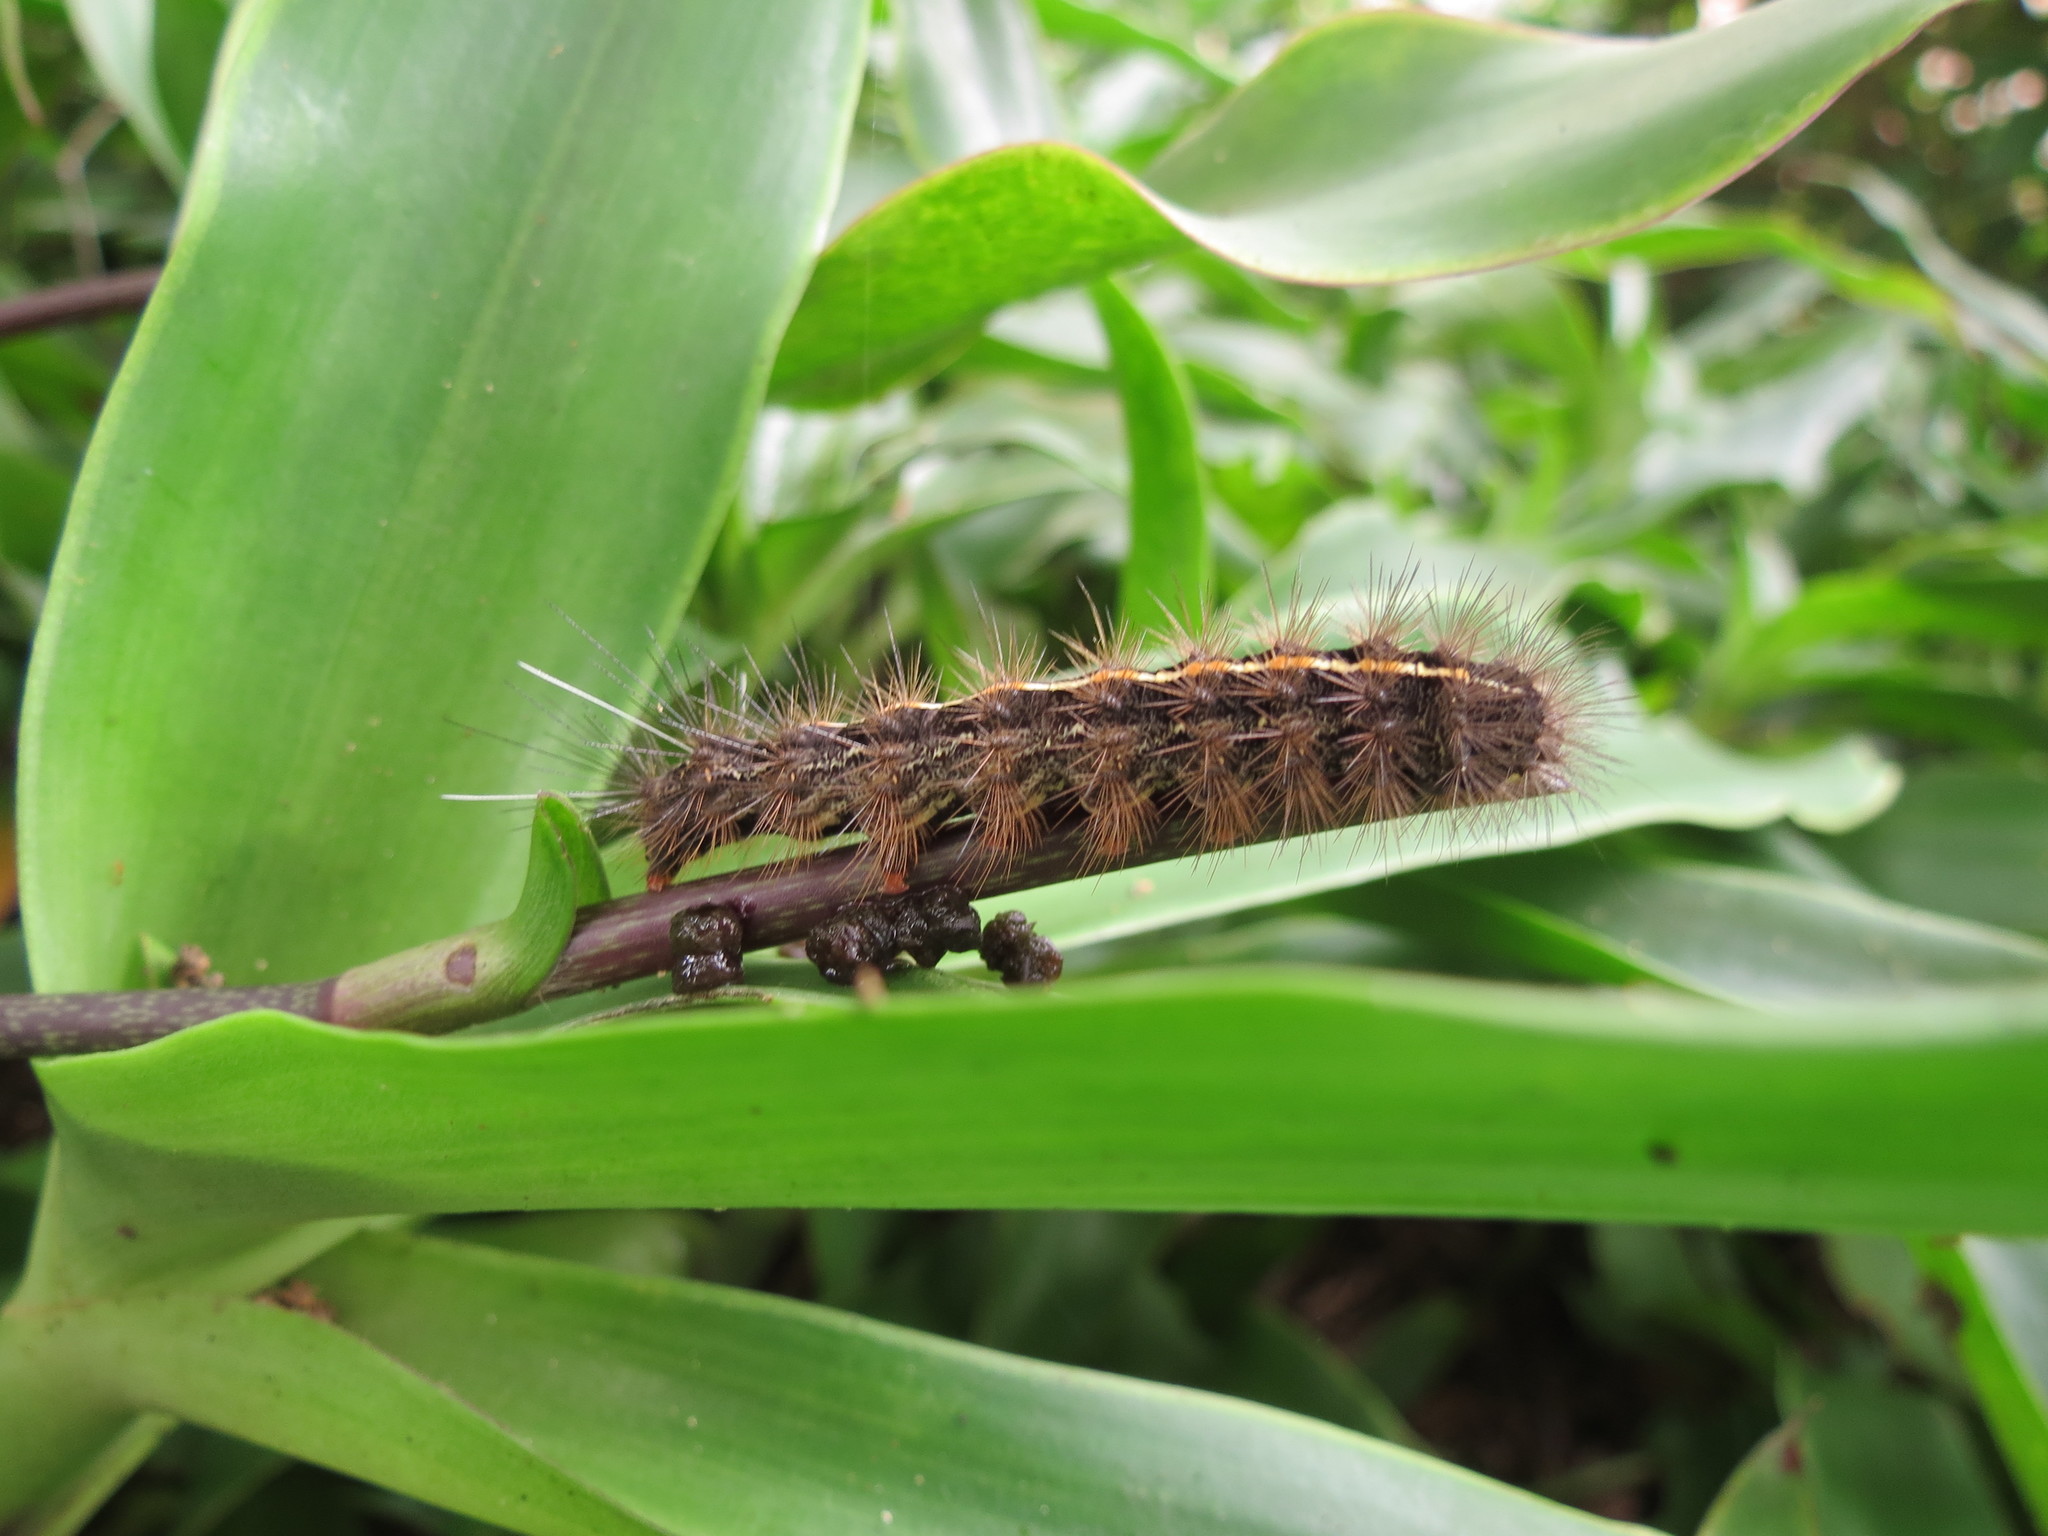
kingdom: Animalia
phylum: Arthropoda
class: Insecta
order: Lepidoptera
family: Erebidae
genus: Ustjuzhania
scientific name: Ustjuzhania lineata
